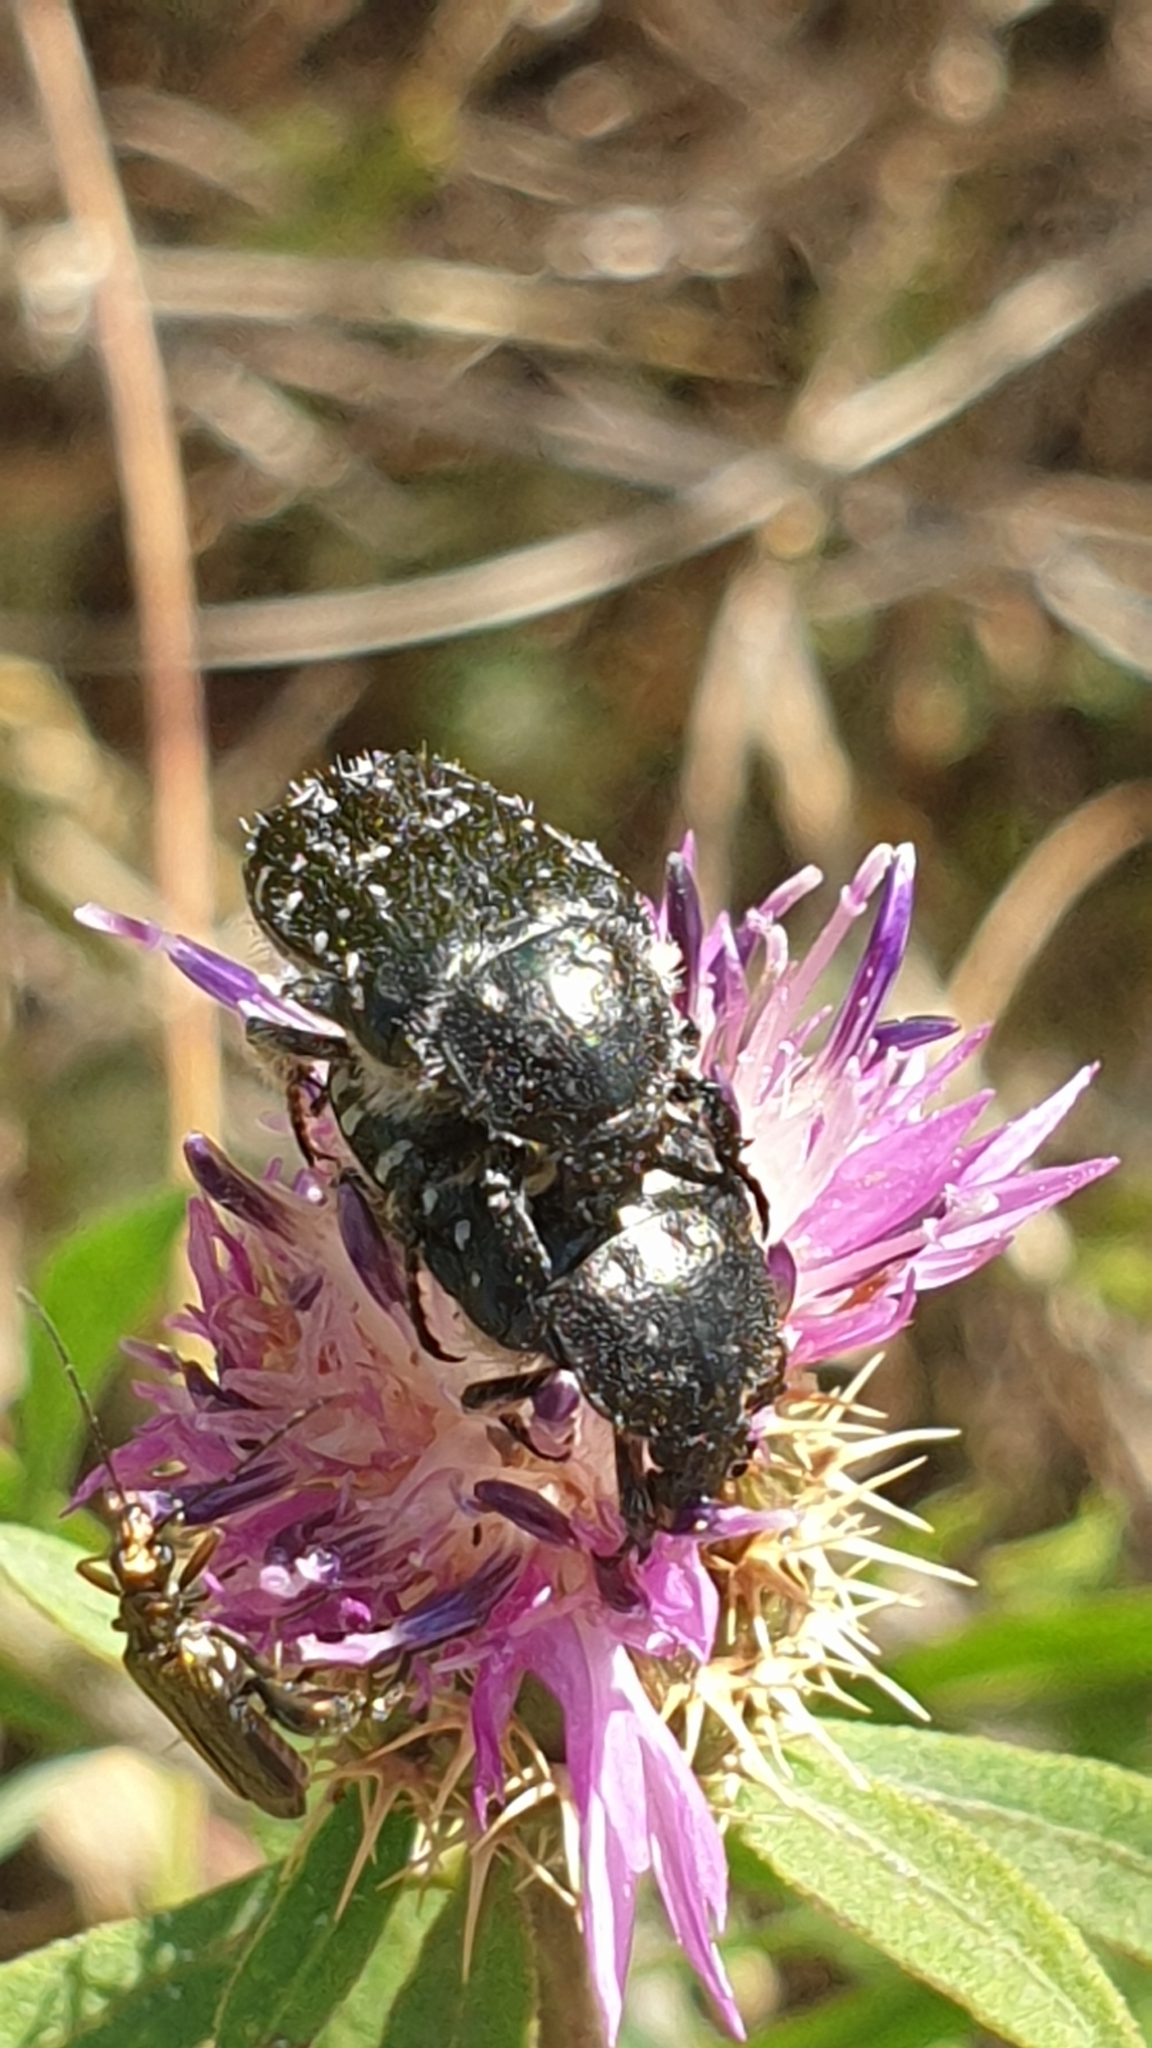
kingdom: Animalia
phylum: Arthropoda
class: Insecta
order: Coleoptera
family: Scarabaeidae
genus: Oxythyrea
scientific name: Oxythyrea funesta
